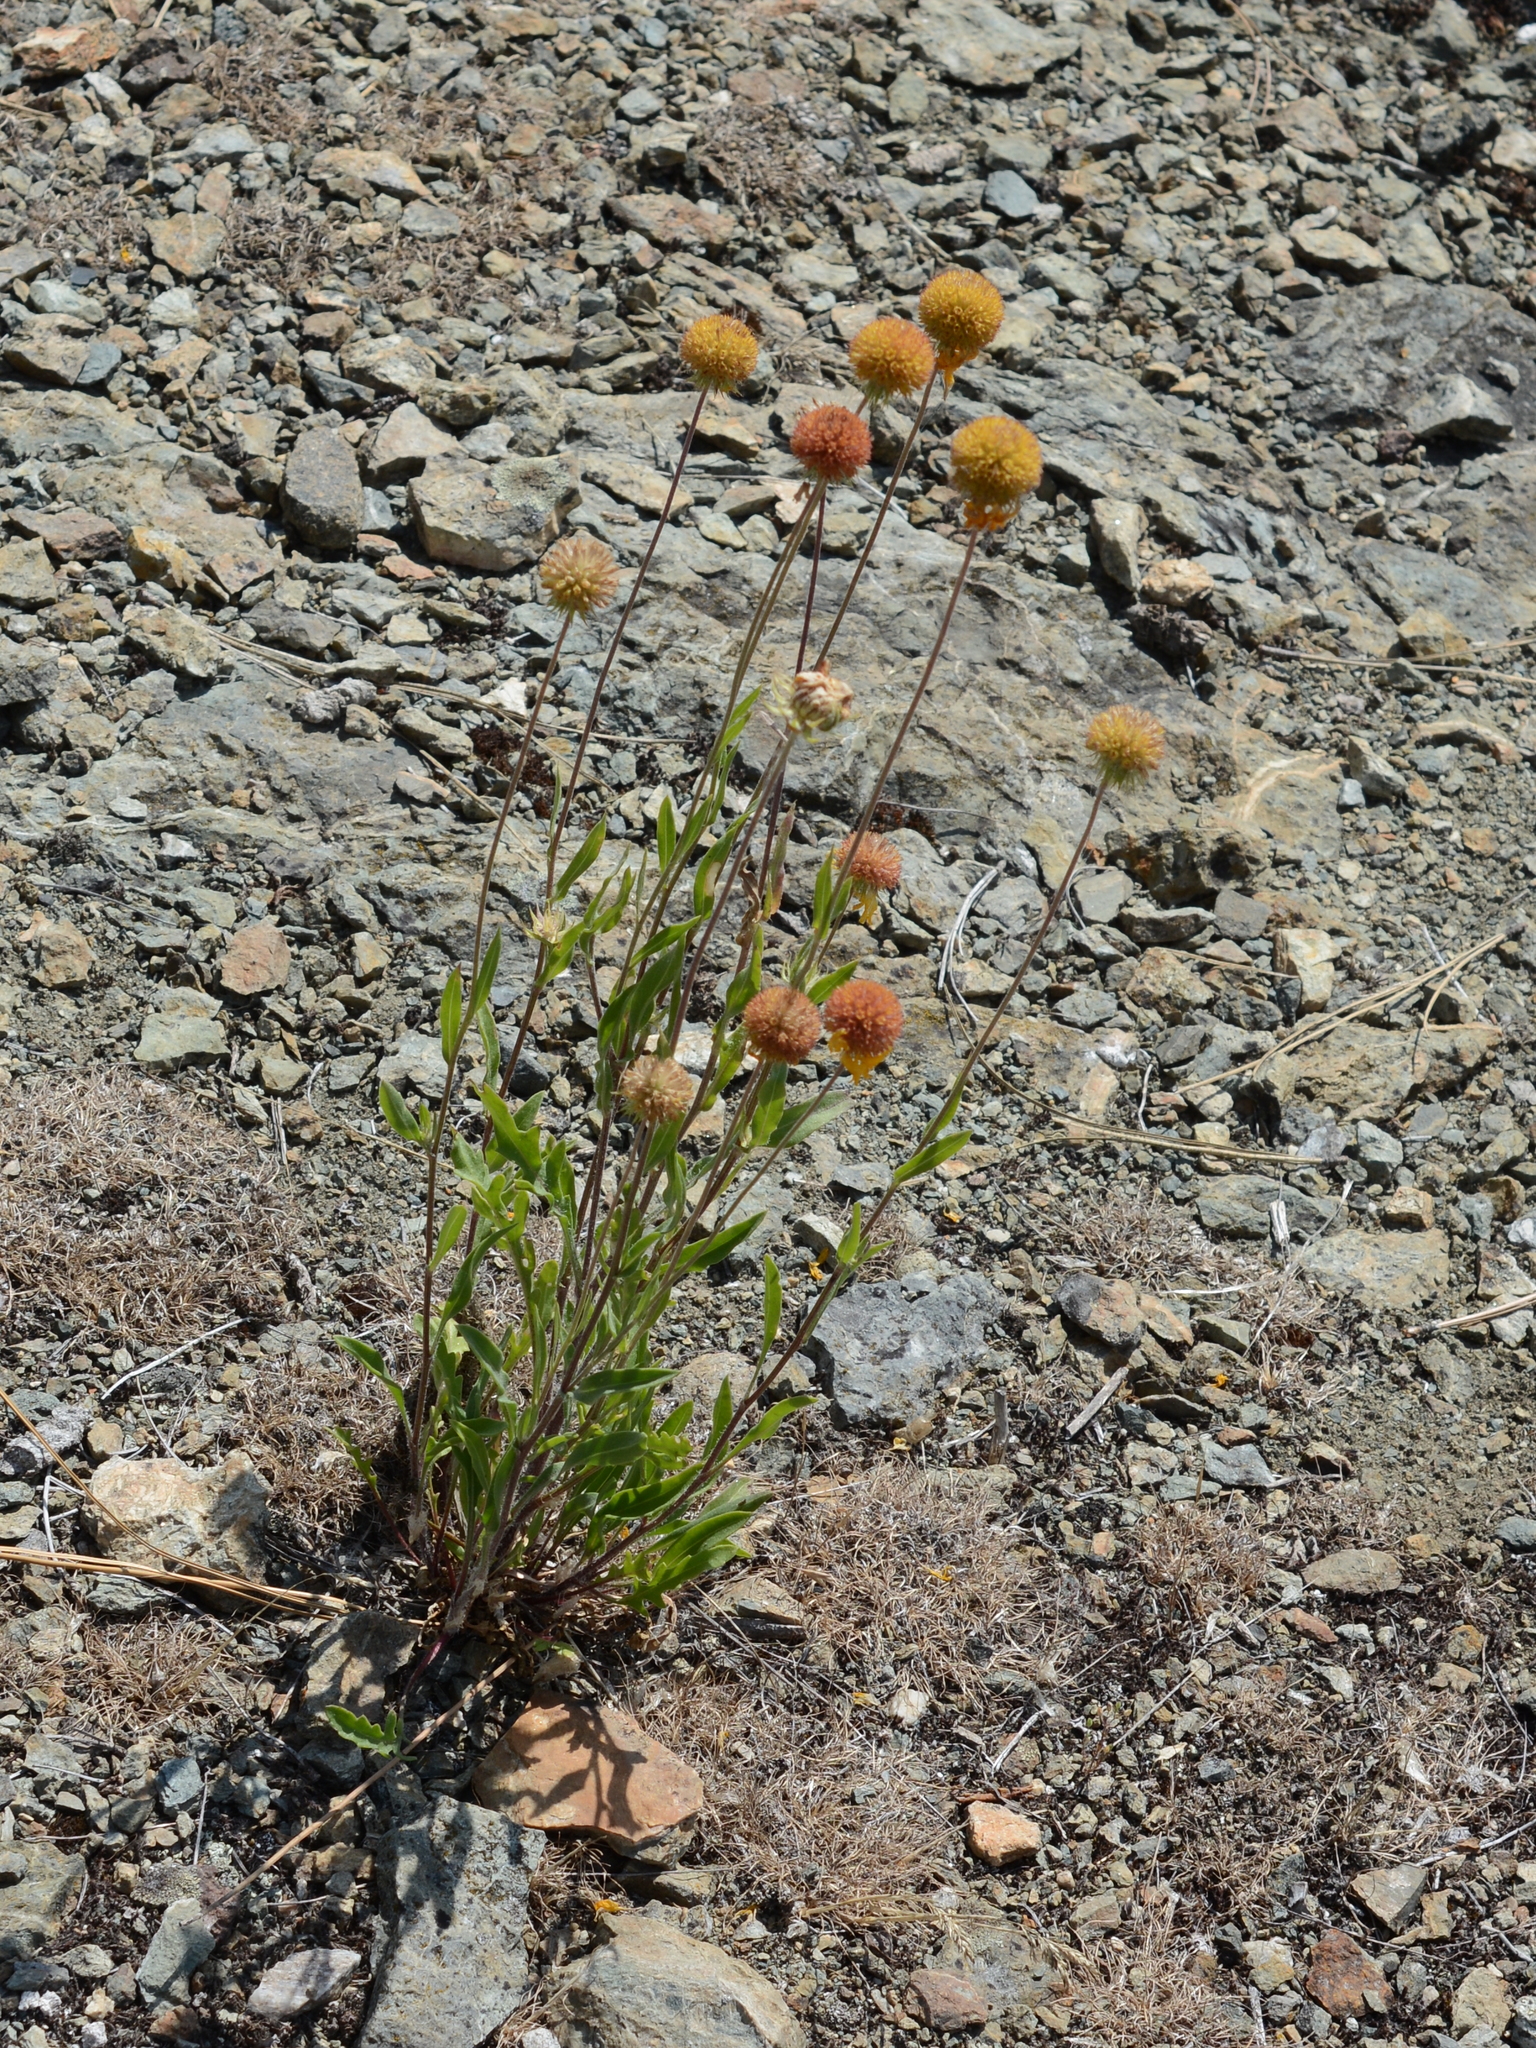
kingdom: Plantae
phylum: Tracheophyta
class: Magnoliopsida
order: Asterales
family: Asteraceae
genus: Gaillardia
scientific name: Gaillardia aristata
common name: Blanket-flower
